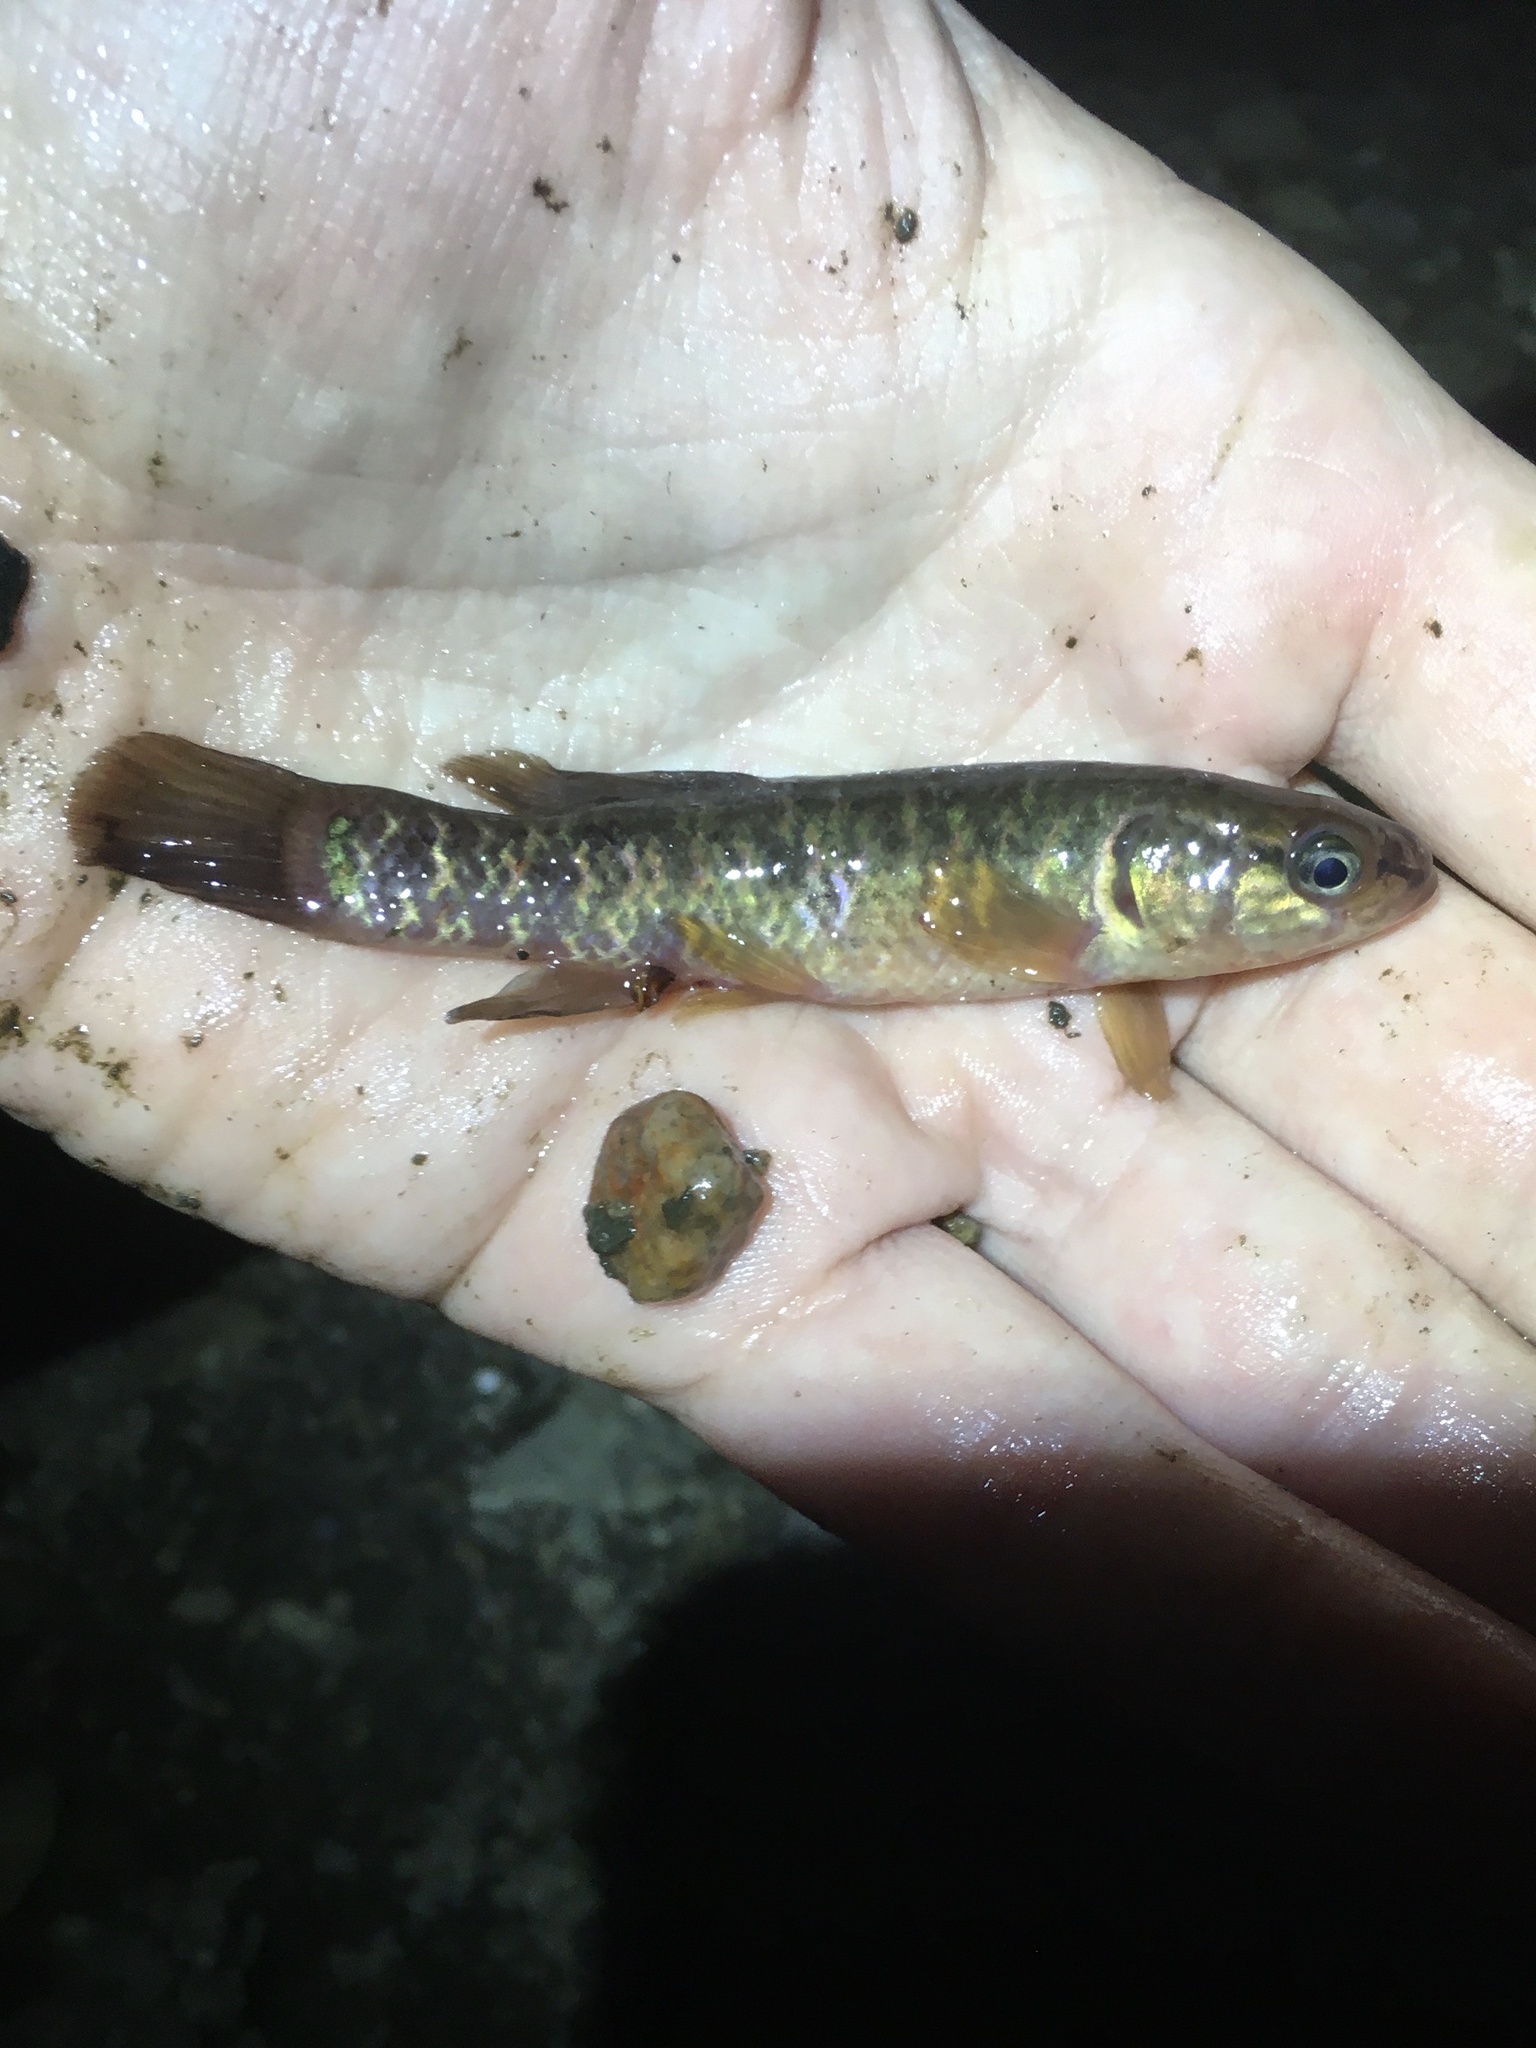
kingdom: Animalia
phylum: Chordata
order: Esociformes
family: Umbridae
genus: Umbra
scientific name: Umbra limi
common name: Central mudminnow
